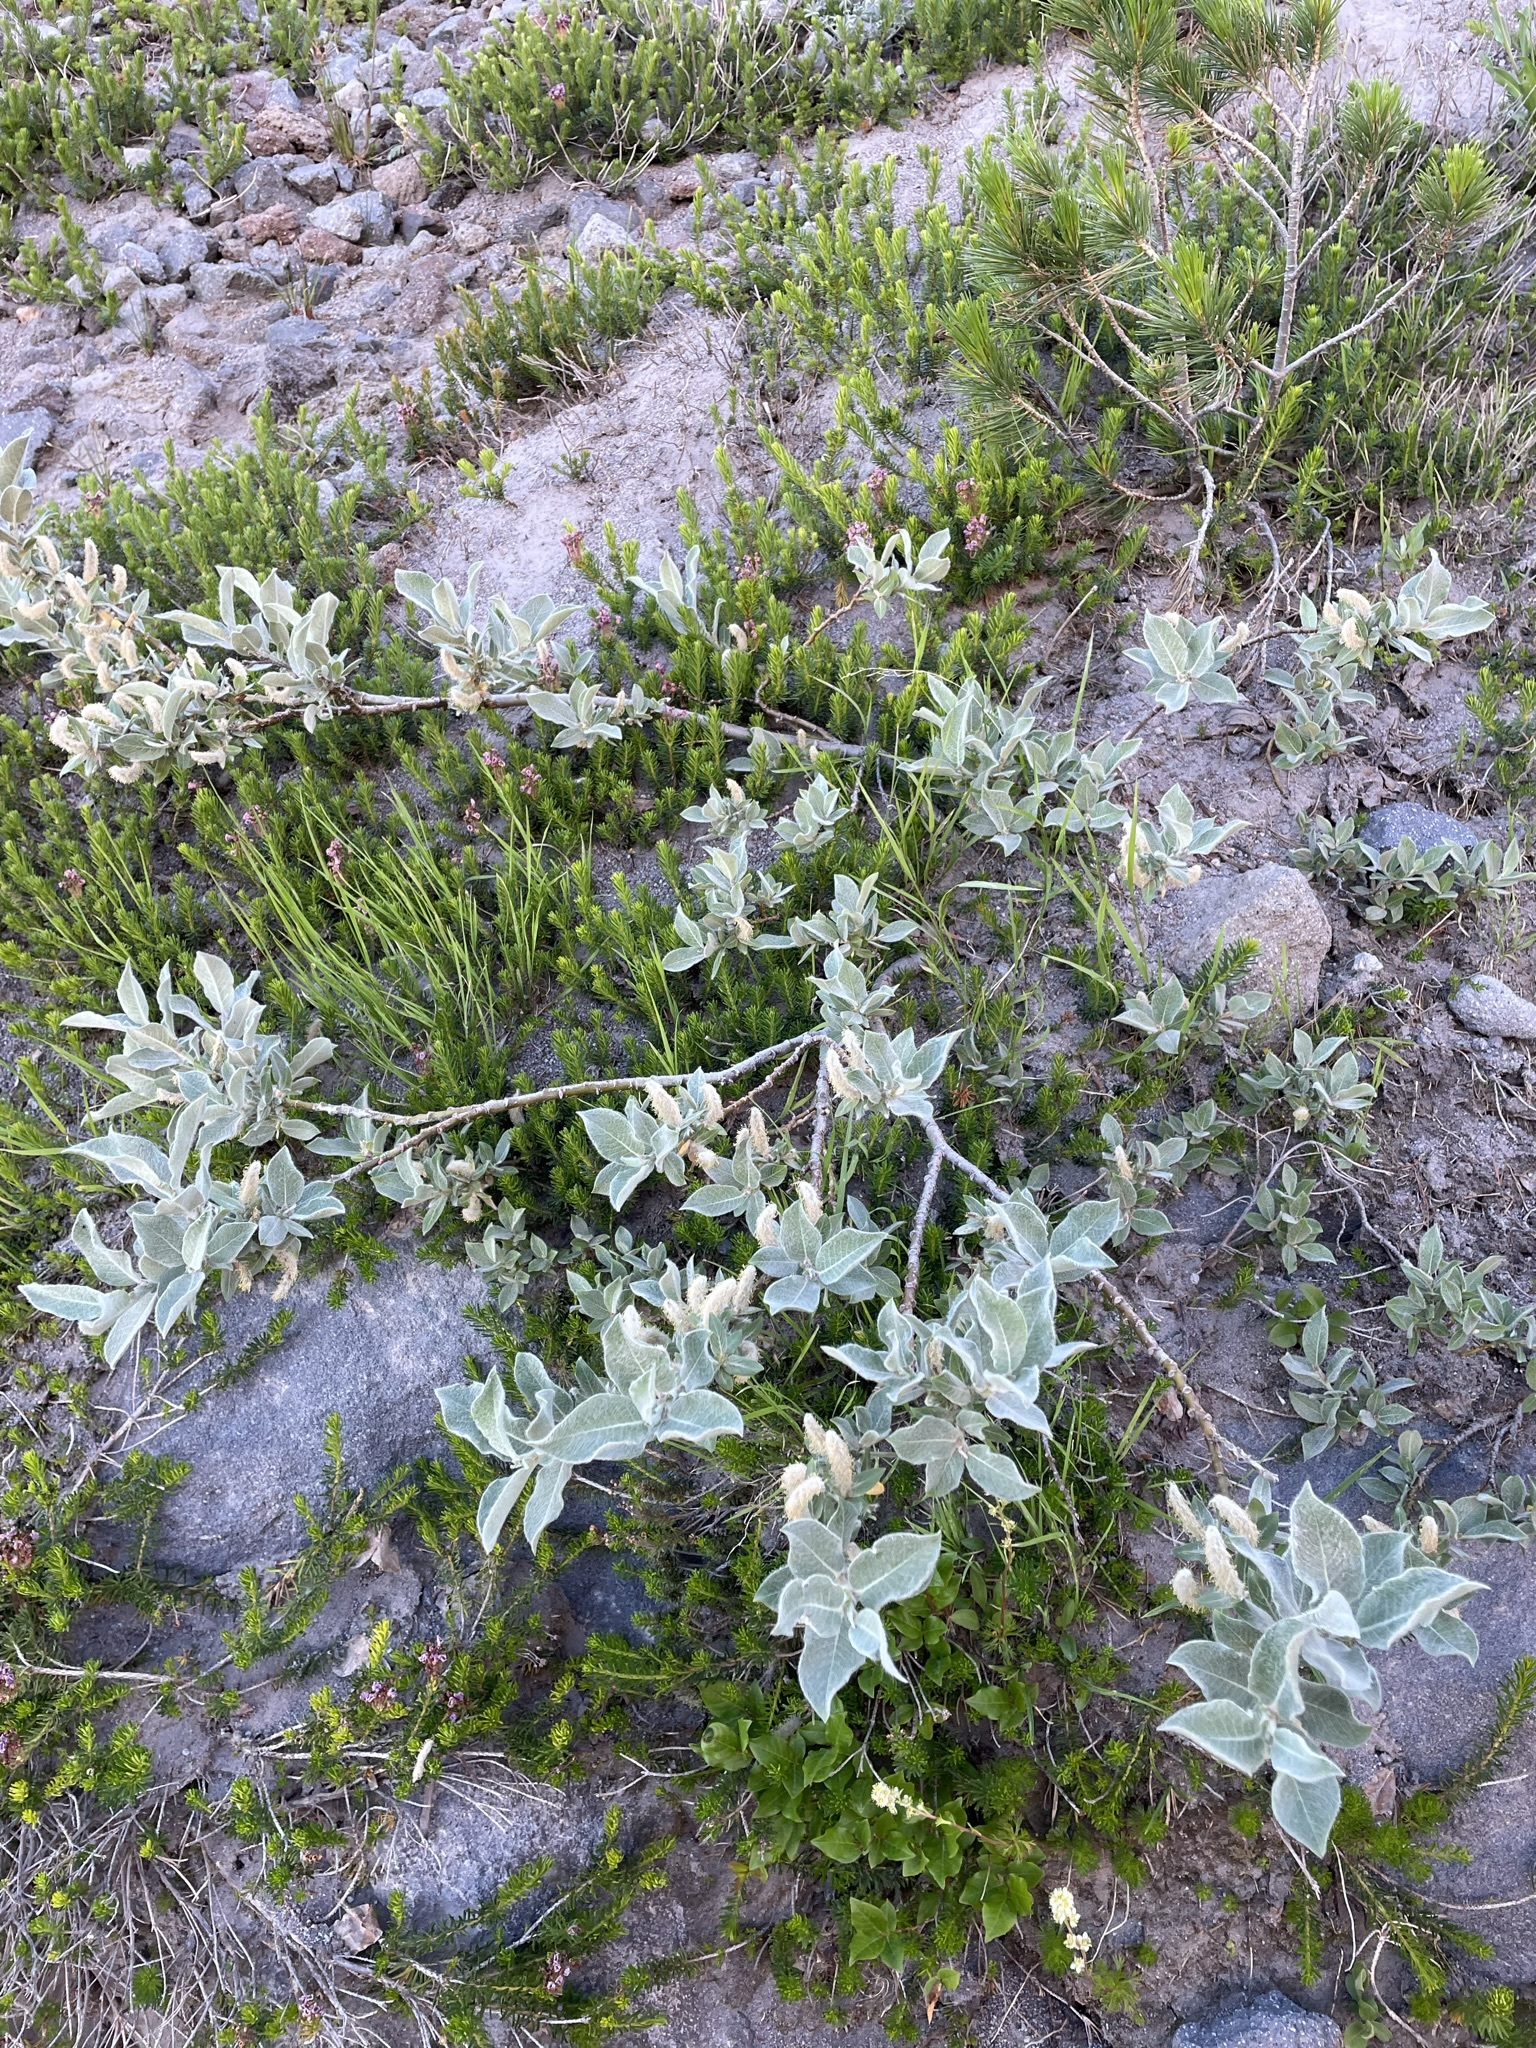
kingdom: Plantae
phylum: Tracheophyta
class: Magnoliopsida
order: Malpighiales
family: Salicaceae
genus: Salix
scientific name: Salix commutata
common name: Under-green willow
